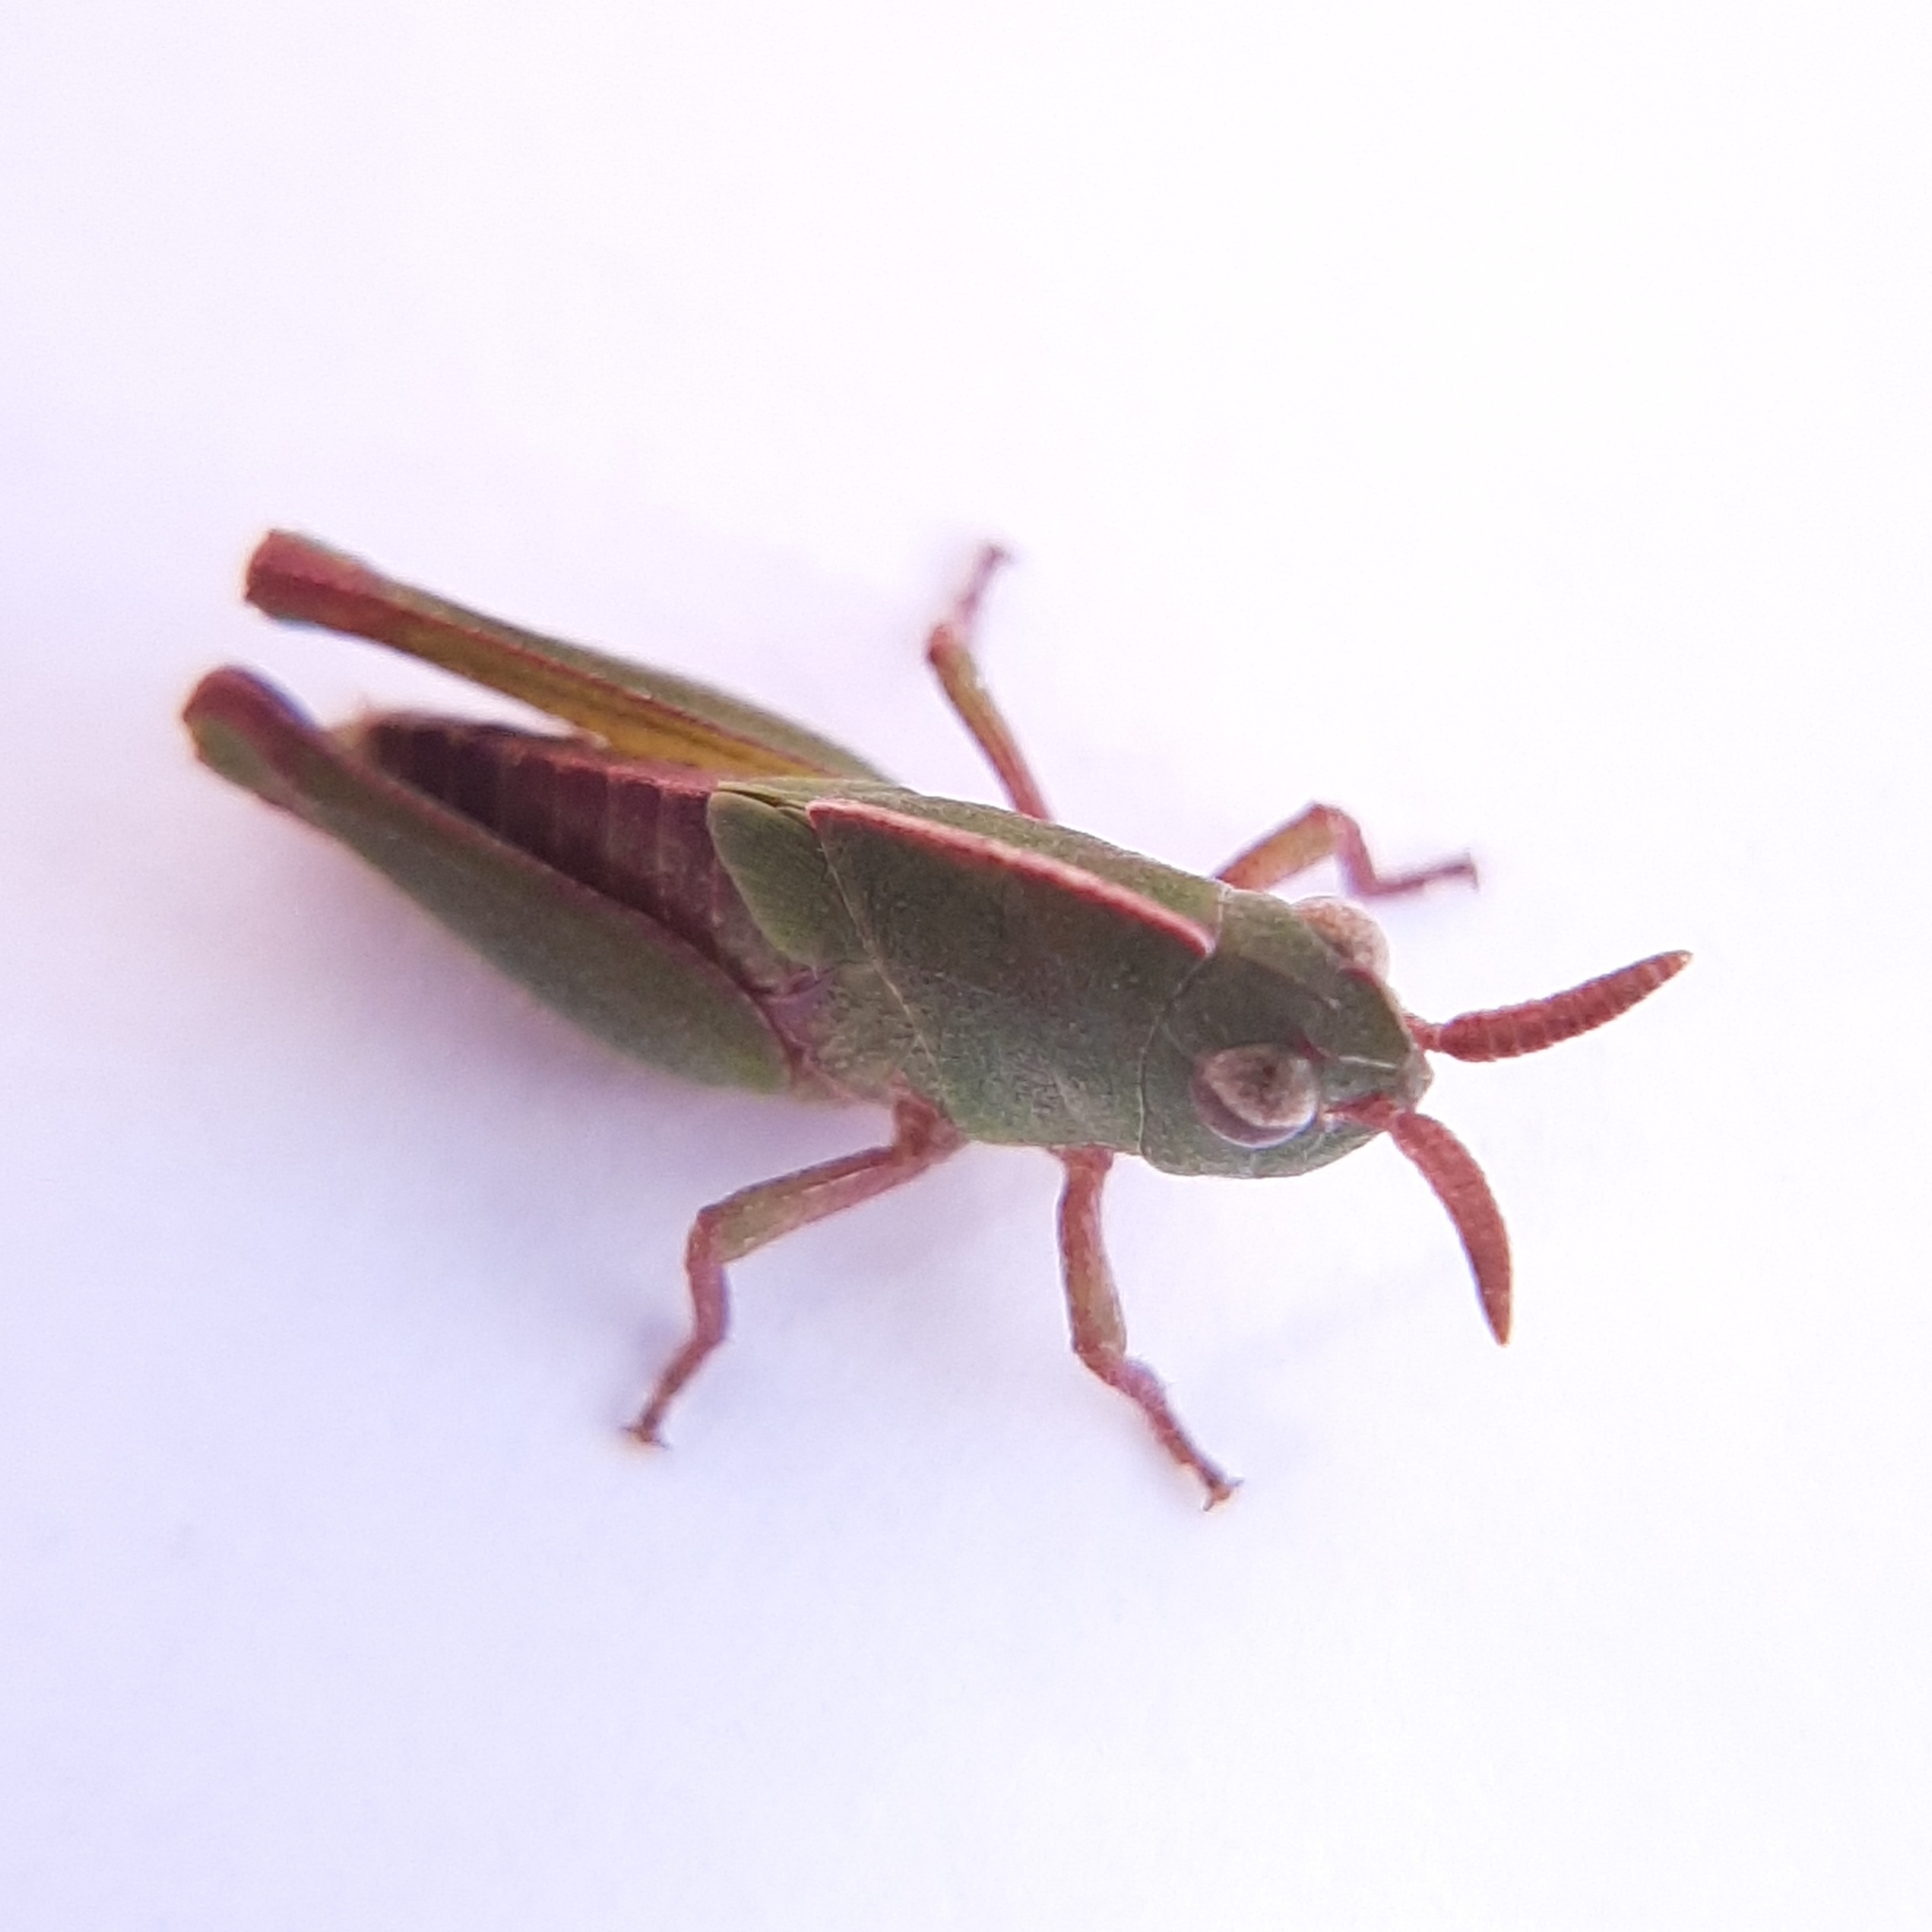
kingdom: Animalia
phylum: Arthropoda
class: Insecta
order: Orthoptera
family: Acrididae
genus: Chortophaga
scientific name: Chortophaga viridifasciata
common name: Green-striped grasshopper
